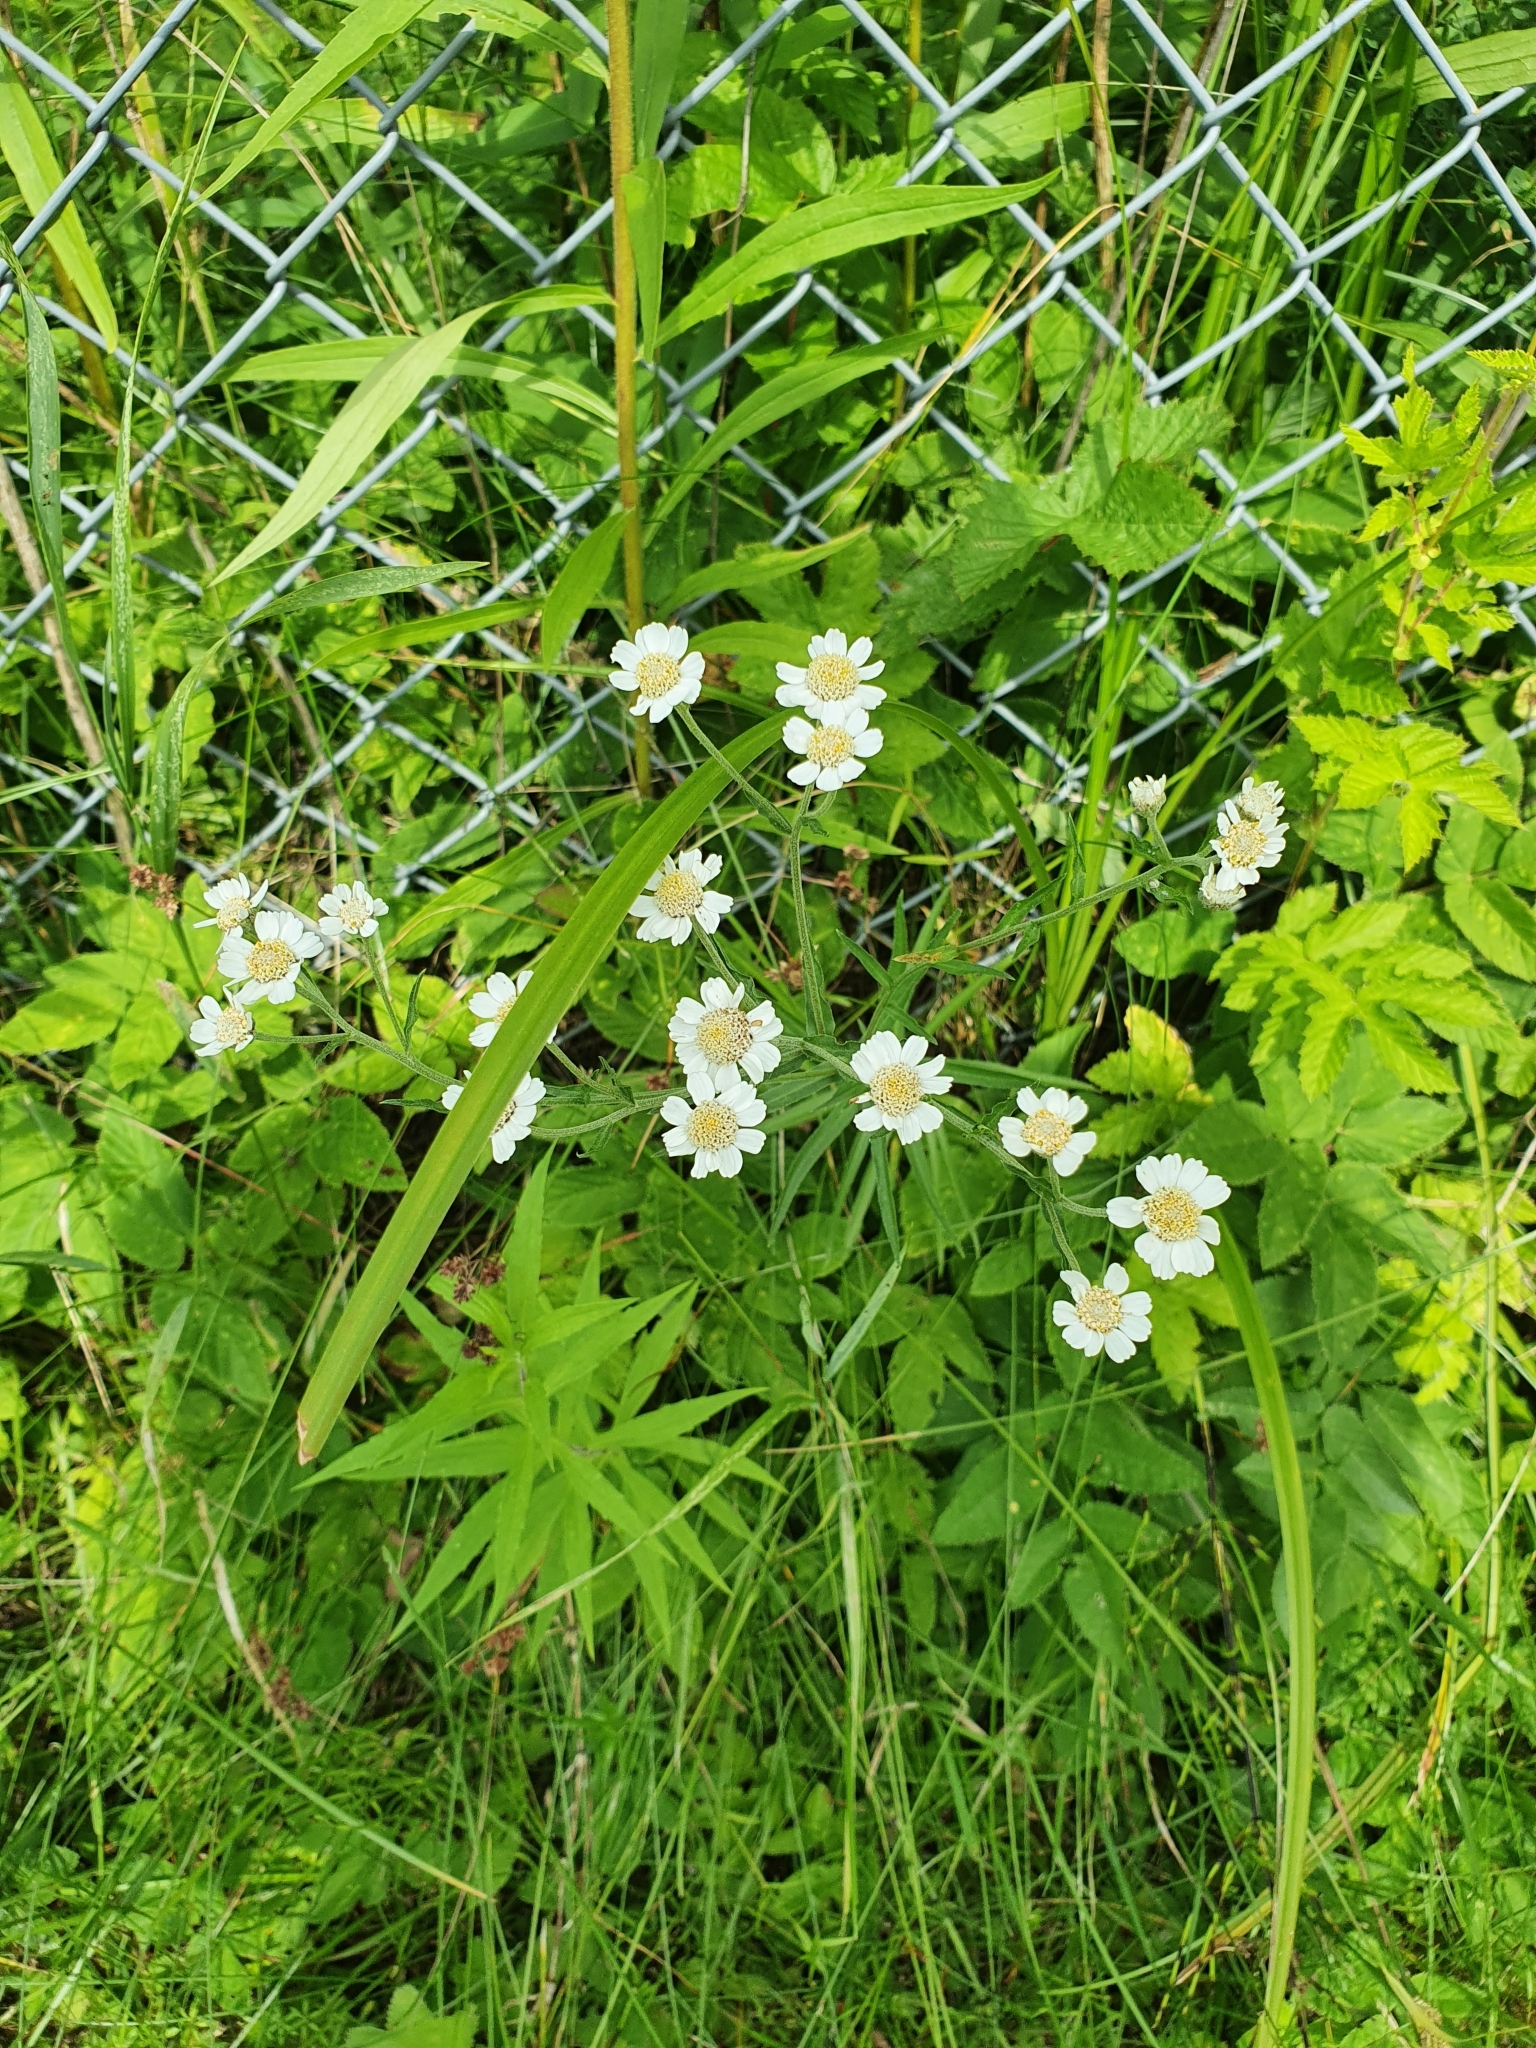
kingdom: Plantae
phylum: Tracheophyta
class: Magnoliopsida
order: Asterales
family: Asteraceae
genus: Achillea
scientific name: Achillea ptarmica
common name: Sneezeweed
